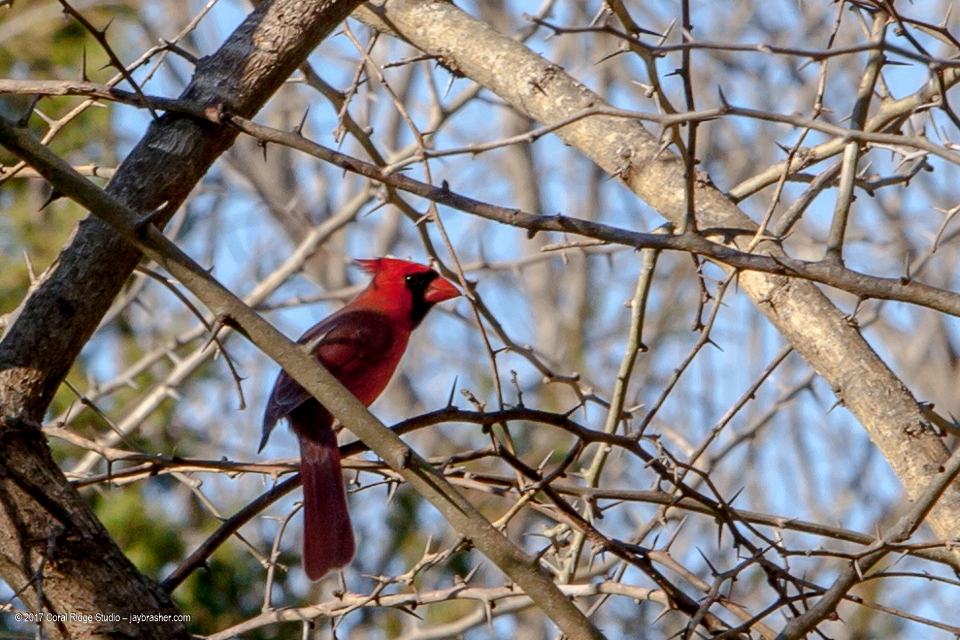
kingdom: Animalia
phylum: Chordata
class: Aves
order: Passeriformes
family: Cardinalidae
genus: Cardinalis
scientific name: Cardinalis cardinalis
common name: Northern cardinal
